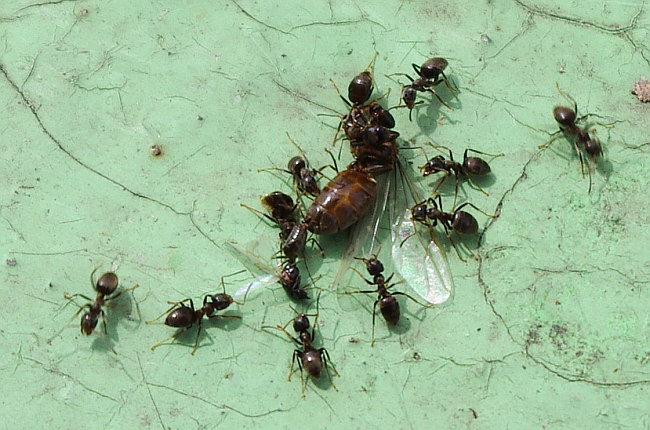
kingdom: Animalia
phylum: Arthropoda
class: Insecta
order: Hymenoptera
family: Formicidae
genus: Lasius
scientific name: Lasius niger
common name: Small black ant
